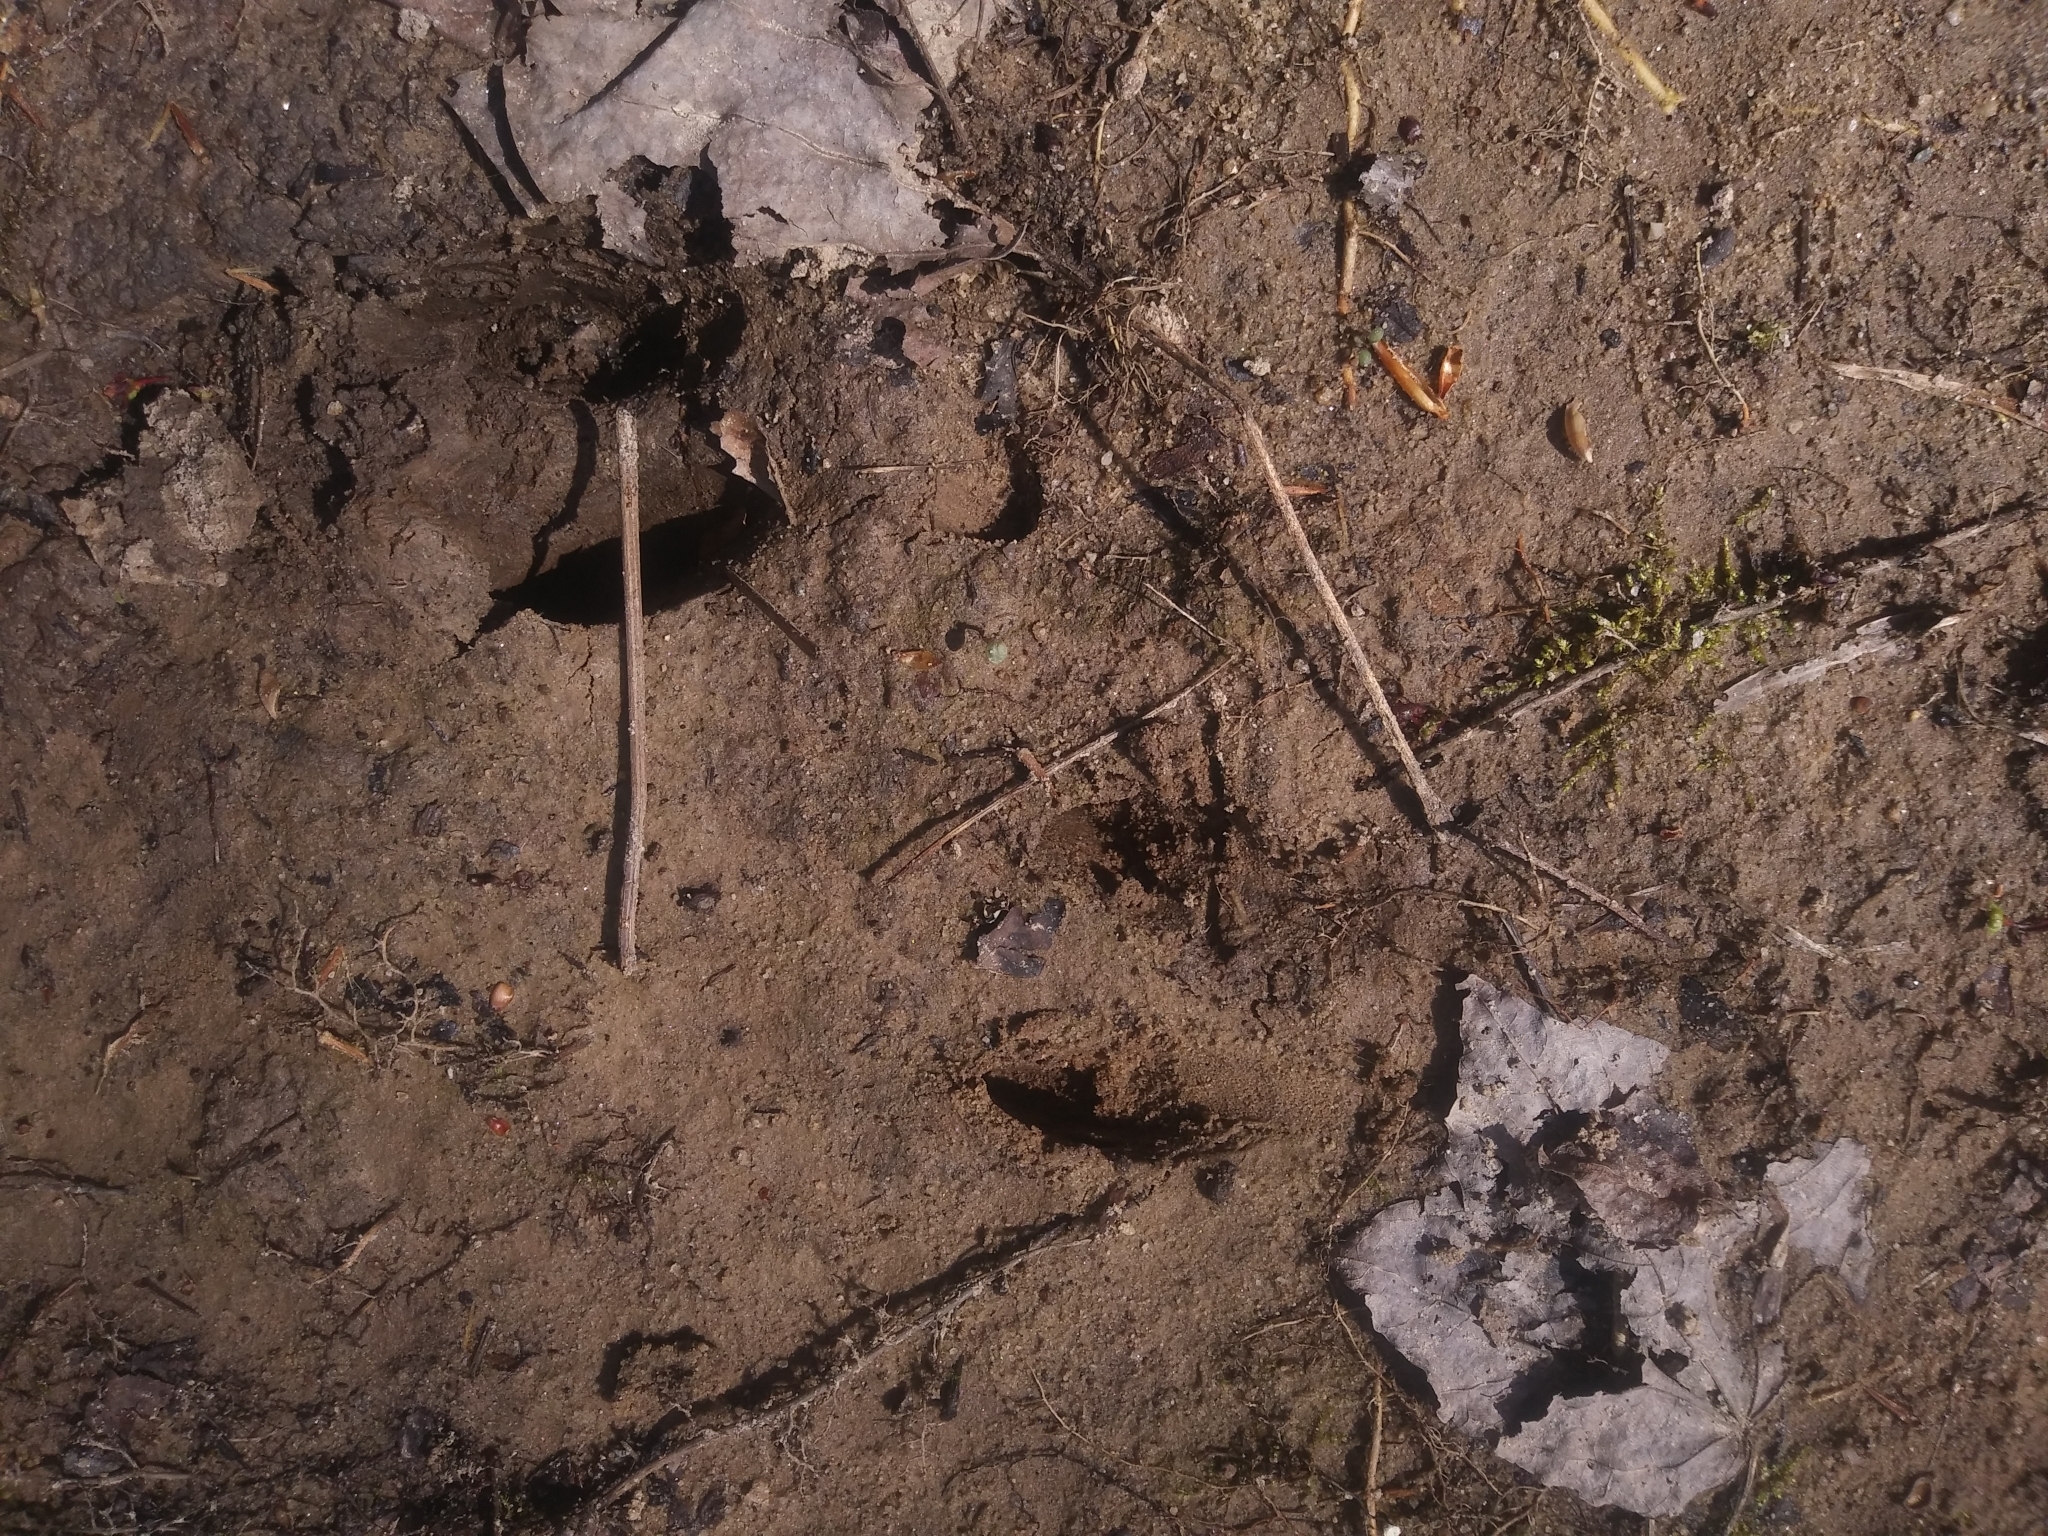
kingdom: Animalia
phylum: Chordata
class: Mammalia
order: Artiodactyla
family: Cervidae
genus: Odocoileus
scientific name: Odocoileus virginianus
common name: White-tailed deer
